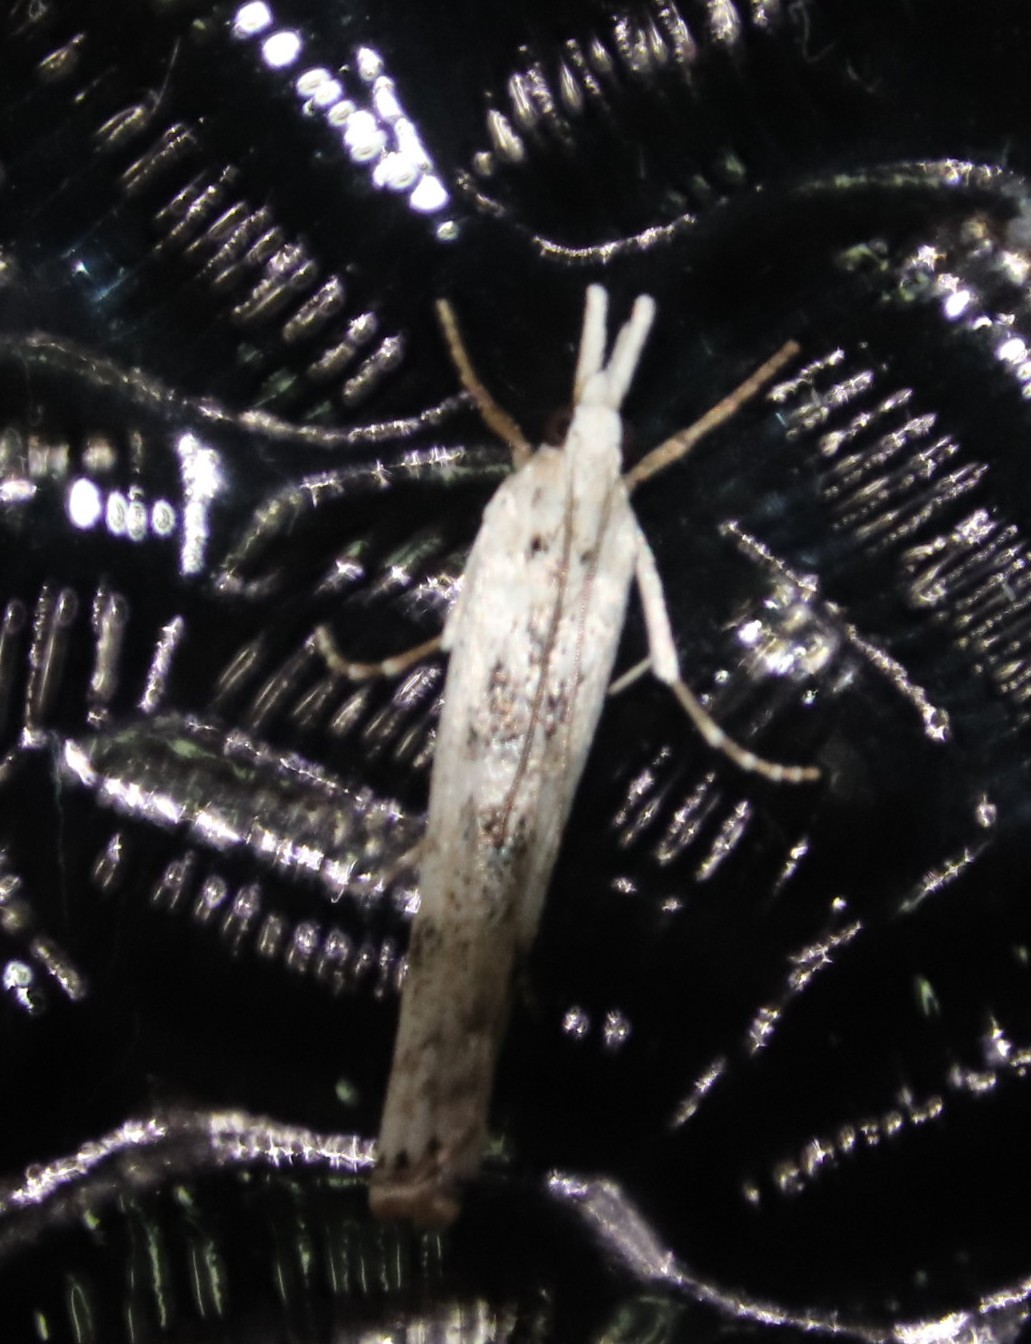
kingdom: Animalia
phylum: Arthropoda
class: Insecta
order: Lepidoptera
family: Crambidae
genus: Crambus
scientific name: Crambus sparsellus
